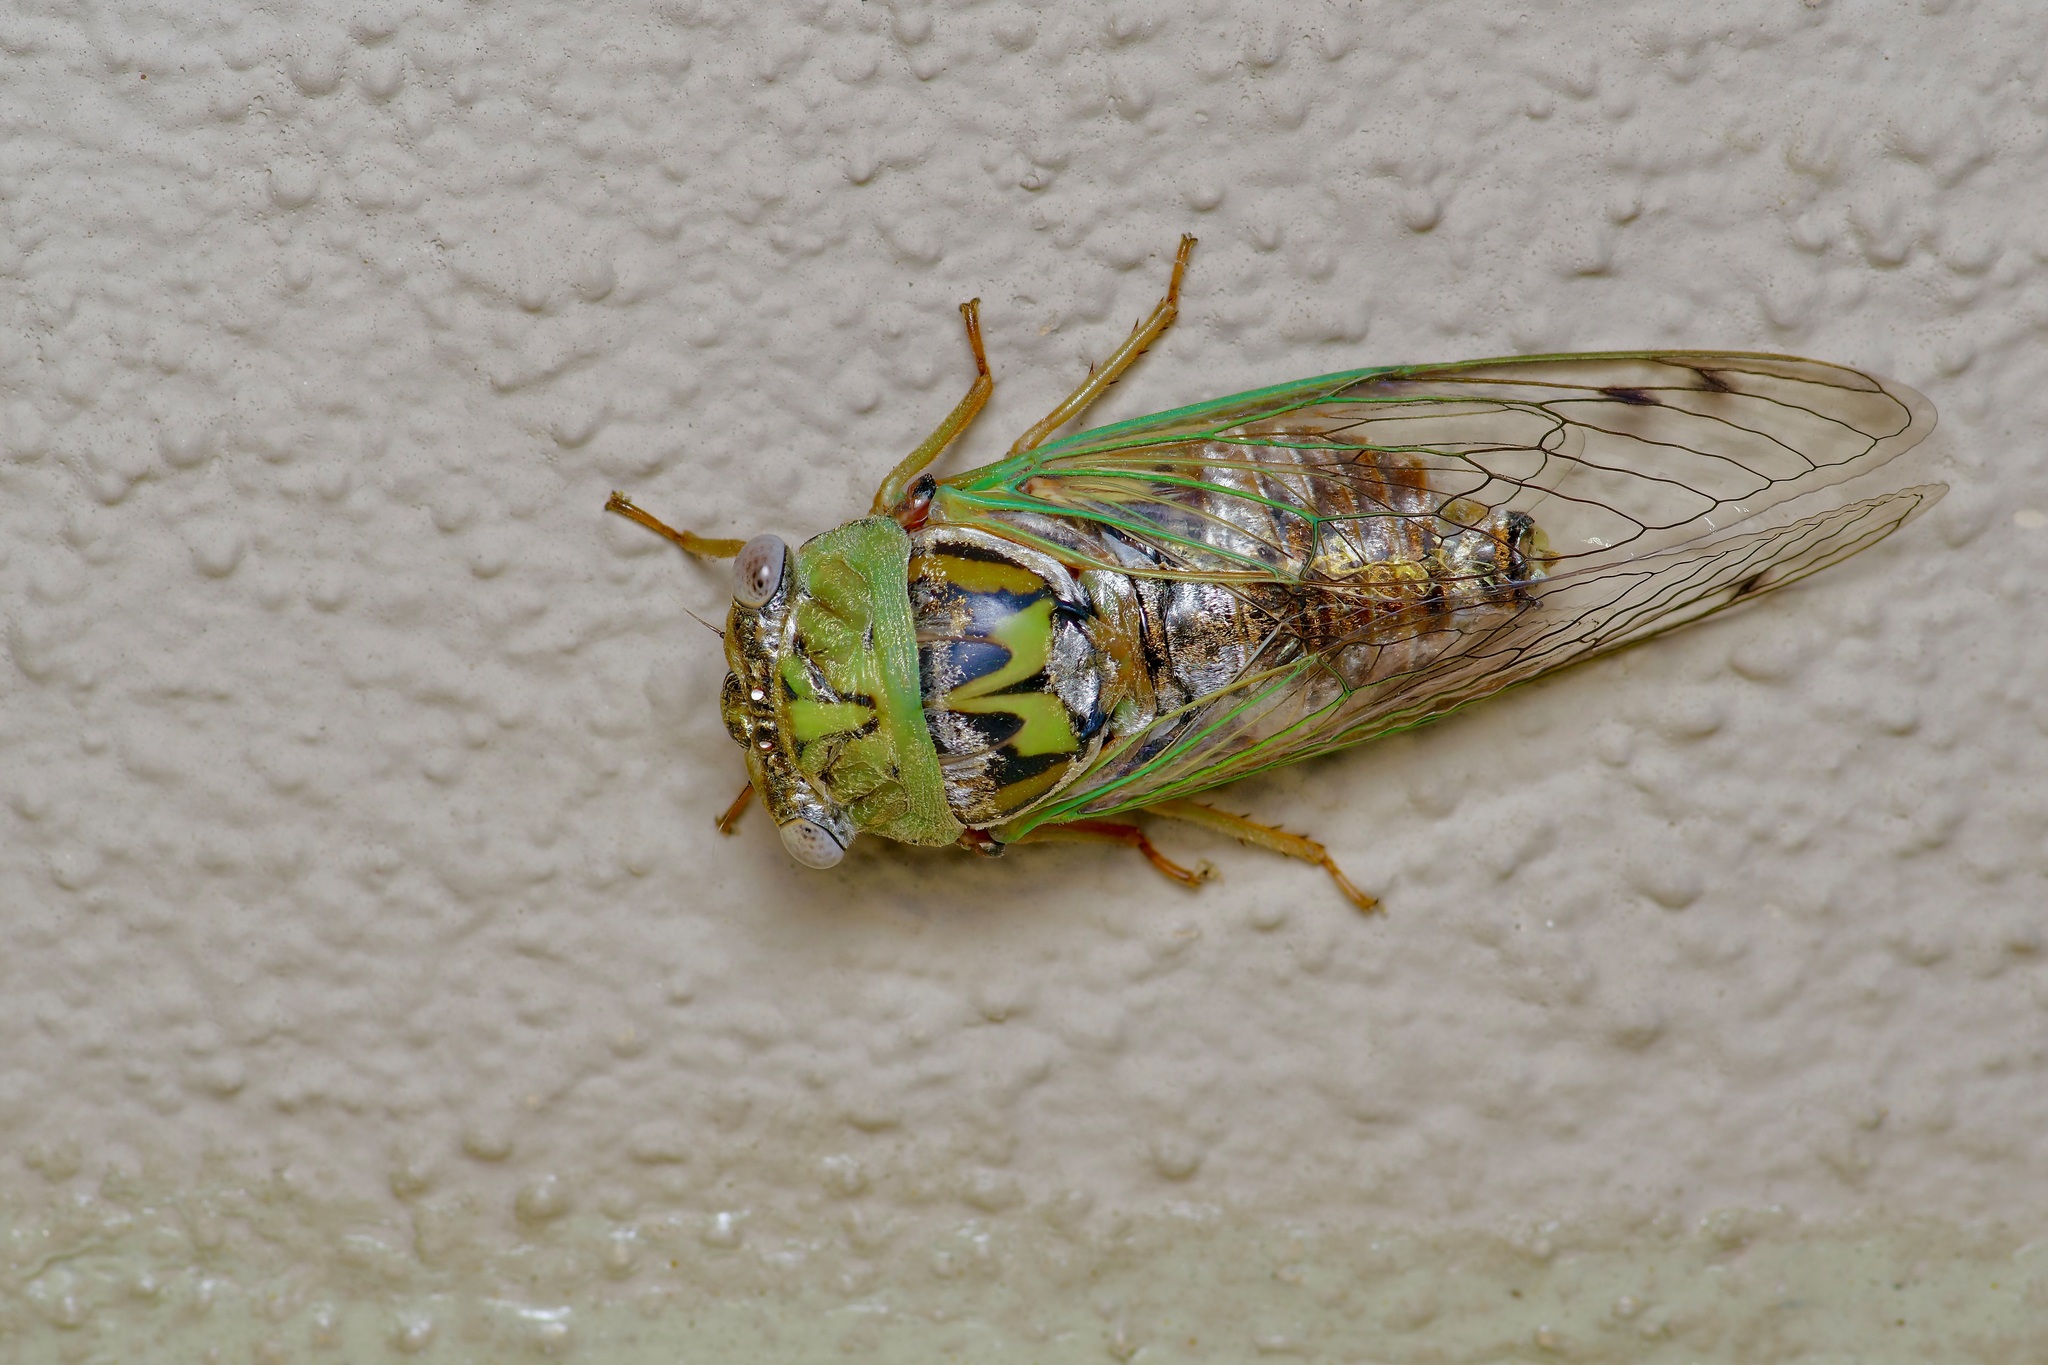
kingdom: Animalia
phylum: Arthropoda
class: Insecta
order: Hemiptera
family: Cicadidae
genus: Megatibicen
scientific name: Megatibicen resh
